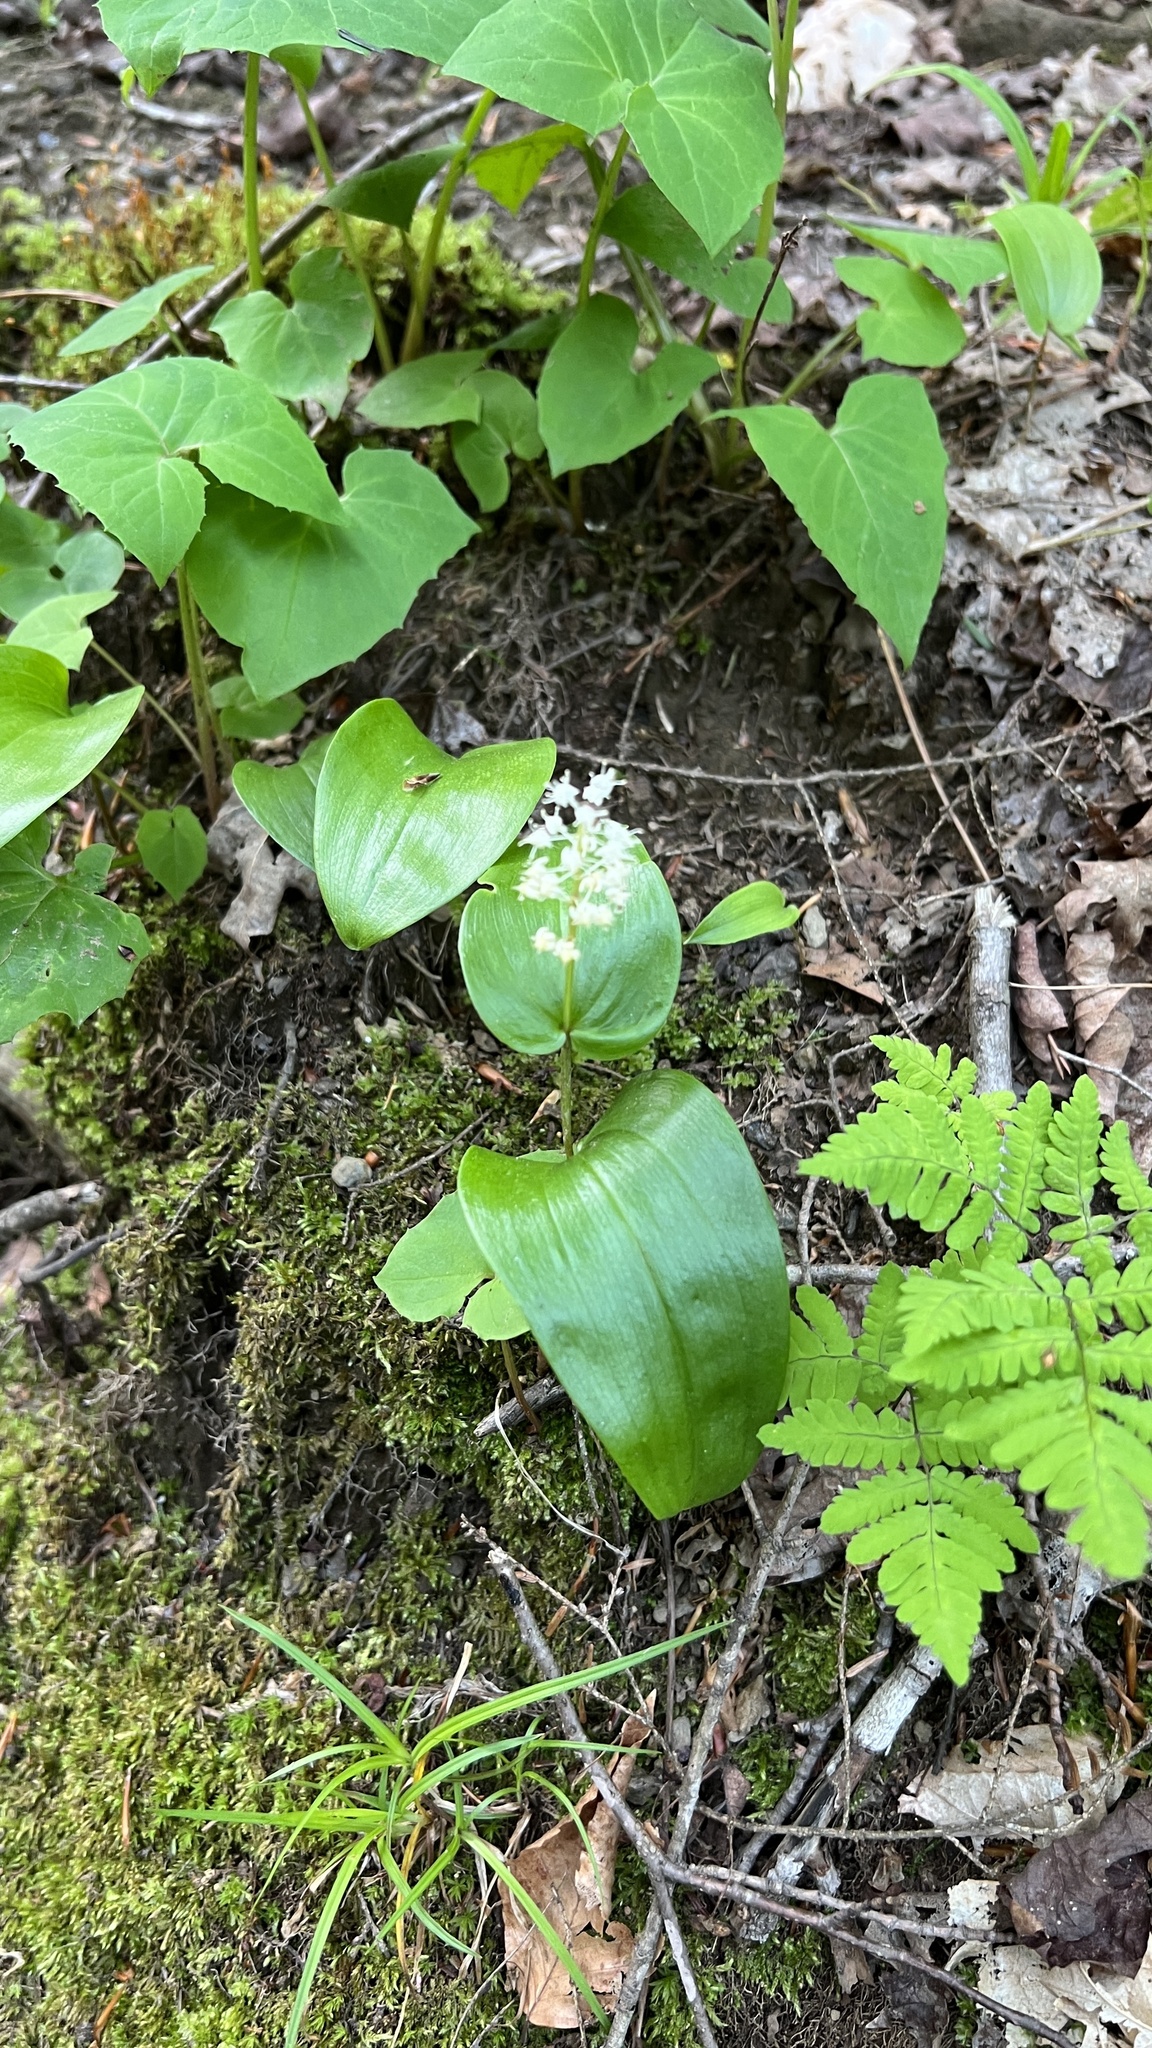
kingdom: Plantae
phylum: Tracheophyta
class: Liliopsida
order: Asparagales
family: Asparagaceae
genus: Maianthemum
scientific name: Maianthemum canadense
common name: False lily-of-the-valley
